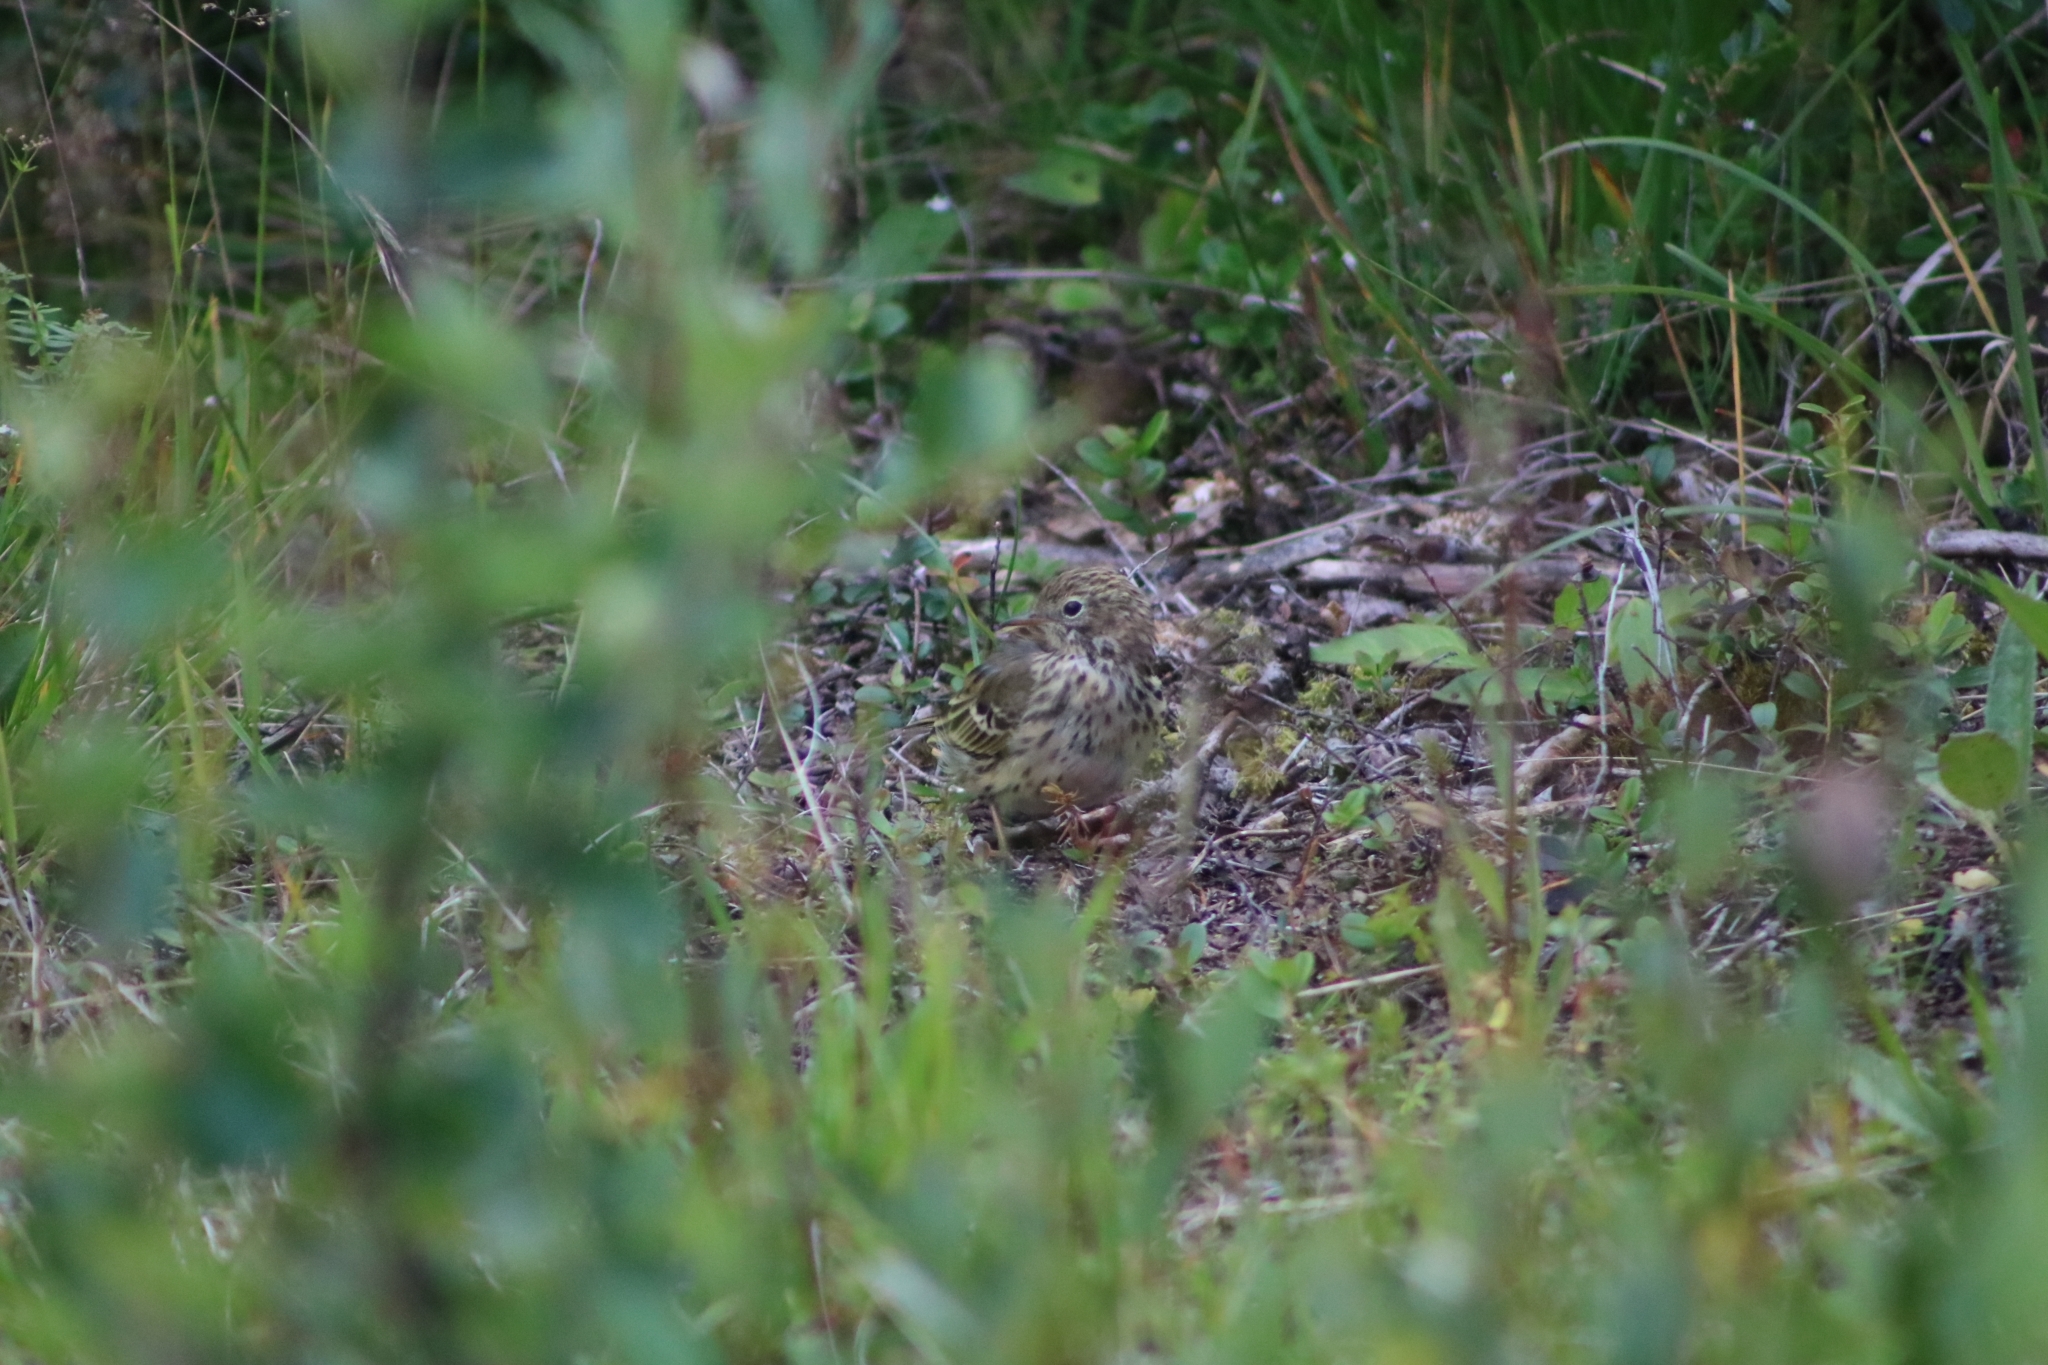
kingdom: Animalia
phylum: Chordata
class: Aves
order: Passeriformes
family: Motacillidae
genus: Anthus
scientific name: Anthus pratensis
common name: Meadow pipit
